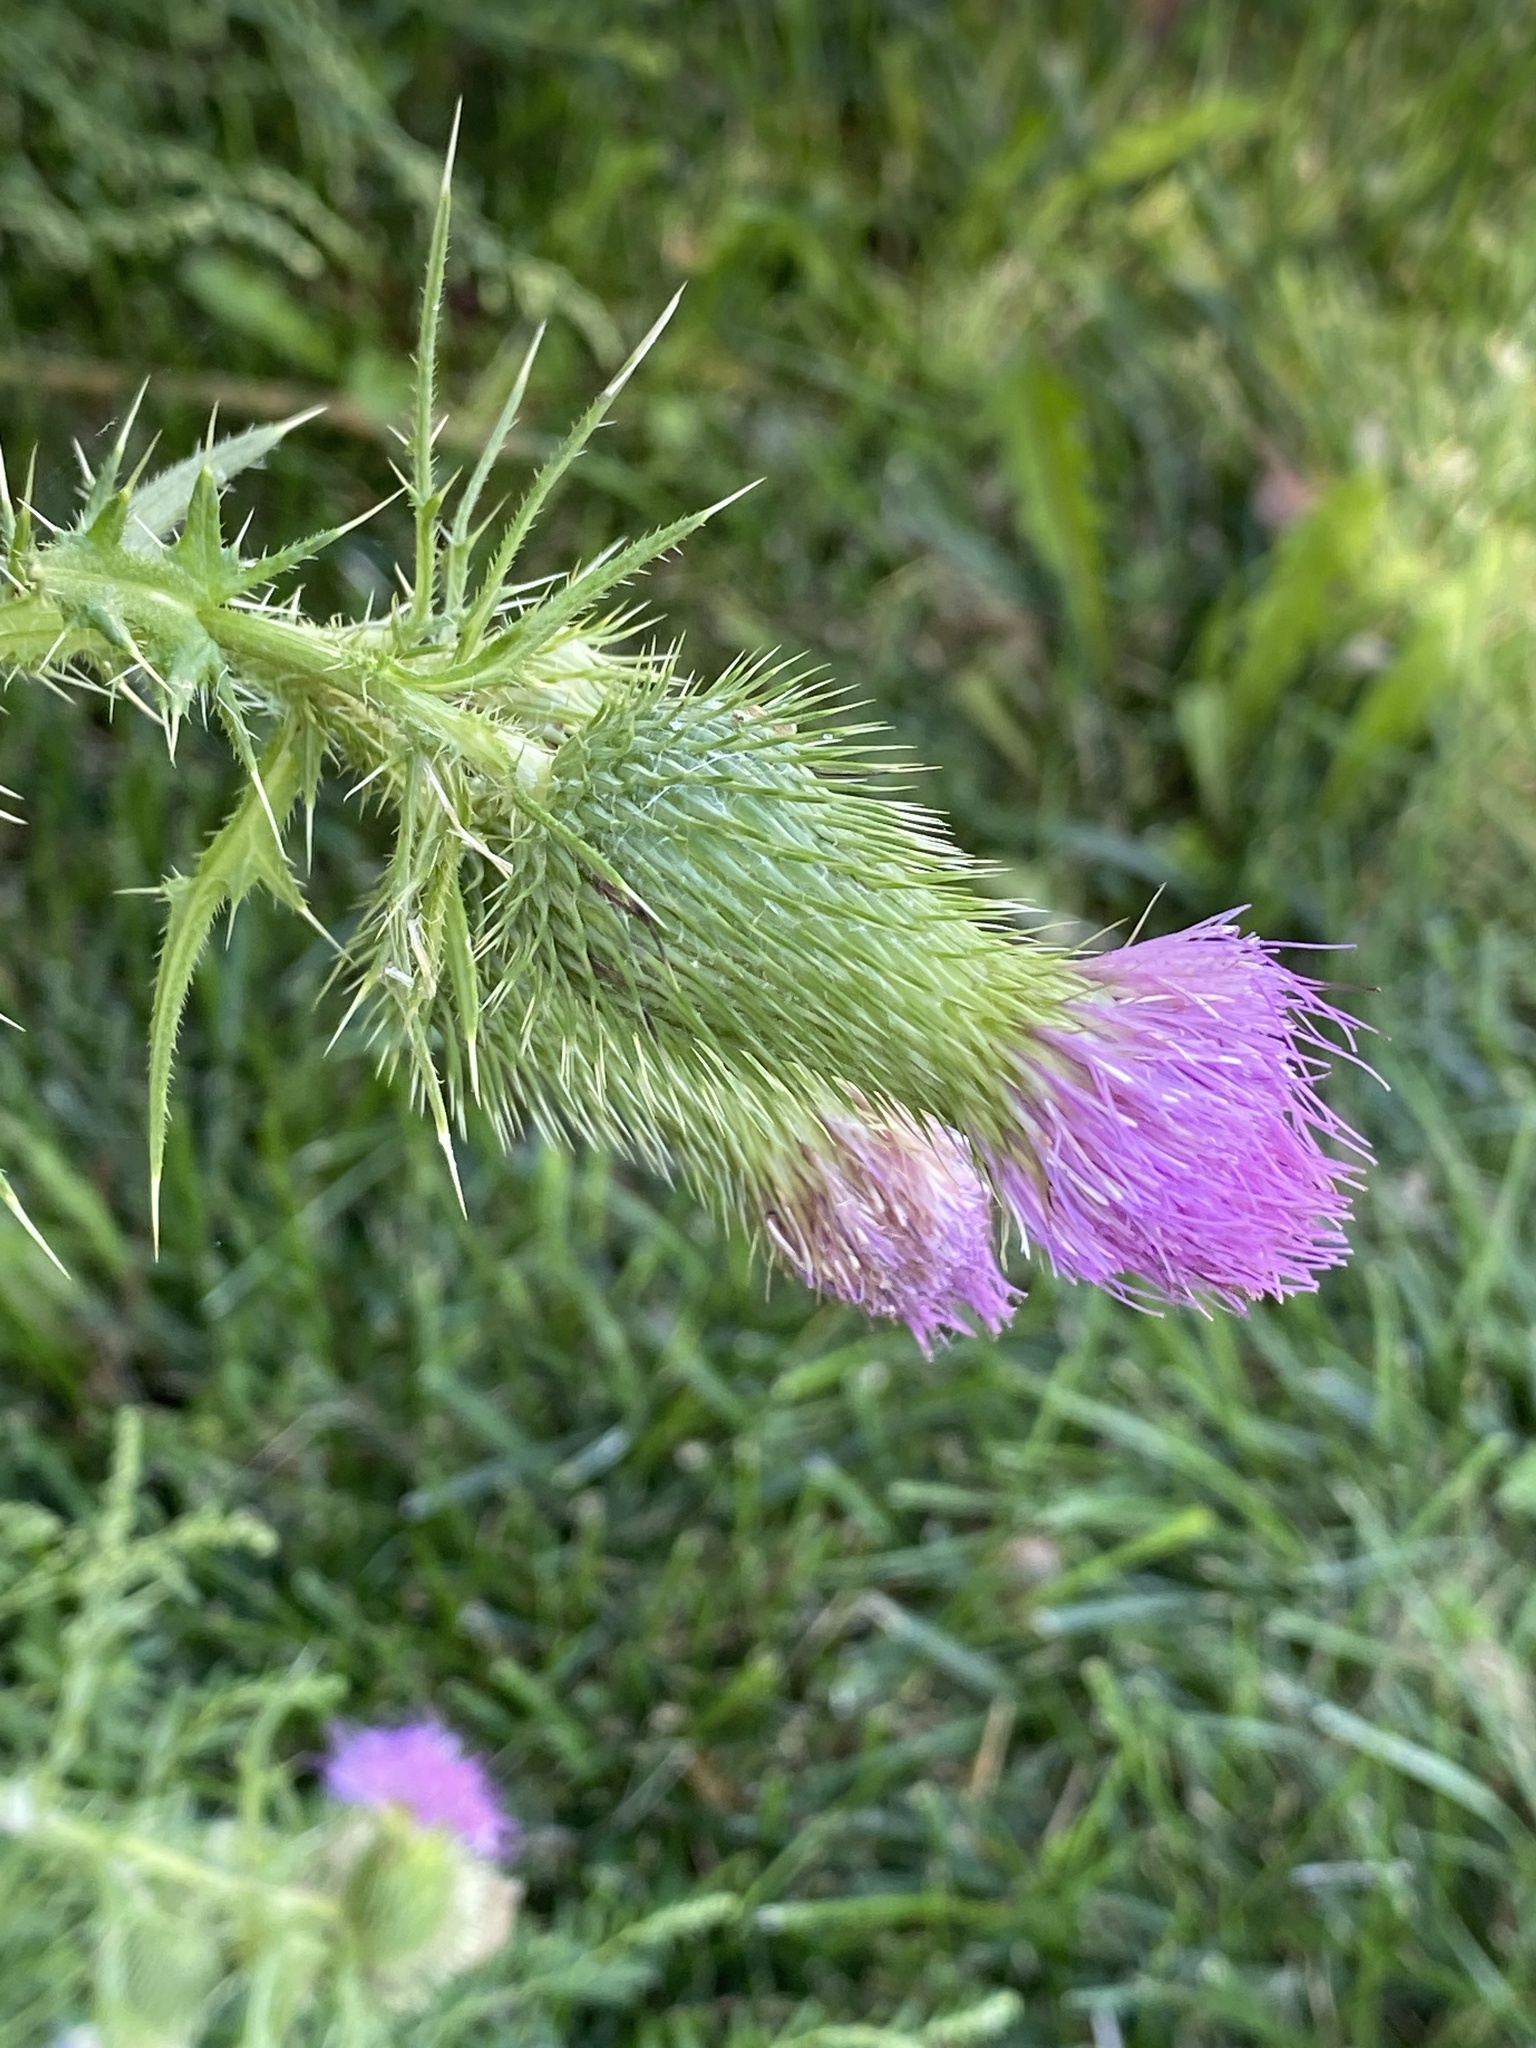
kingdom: Plantae
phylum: Tracheophyta
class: Magnoliopsida
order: Asterales
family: Asteraceae
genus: Cirsium
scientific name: Cirsium vulgare
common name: Bull thistle
